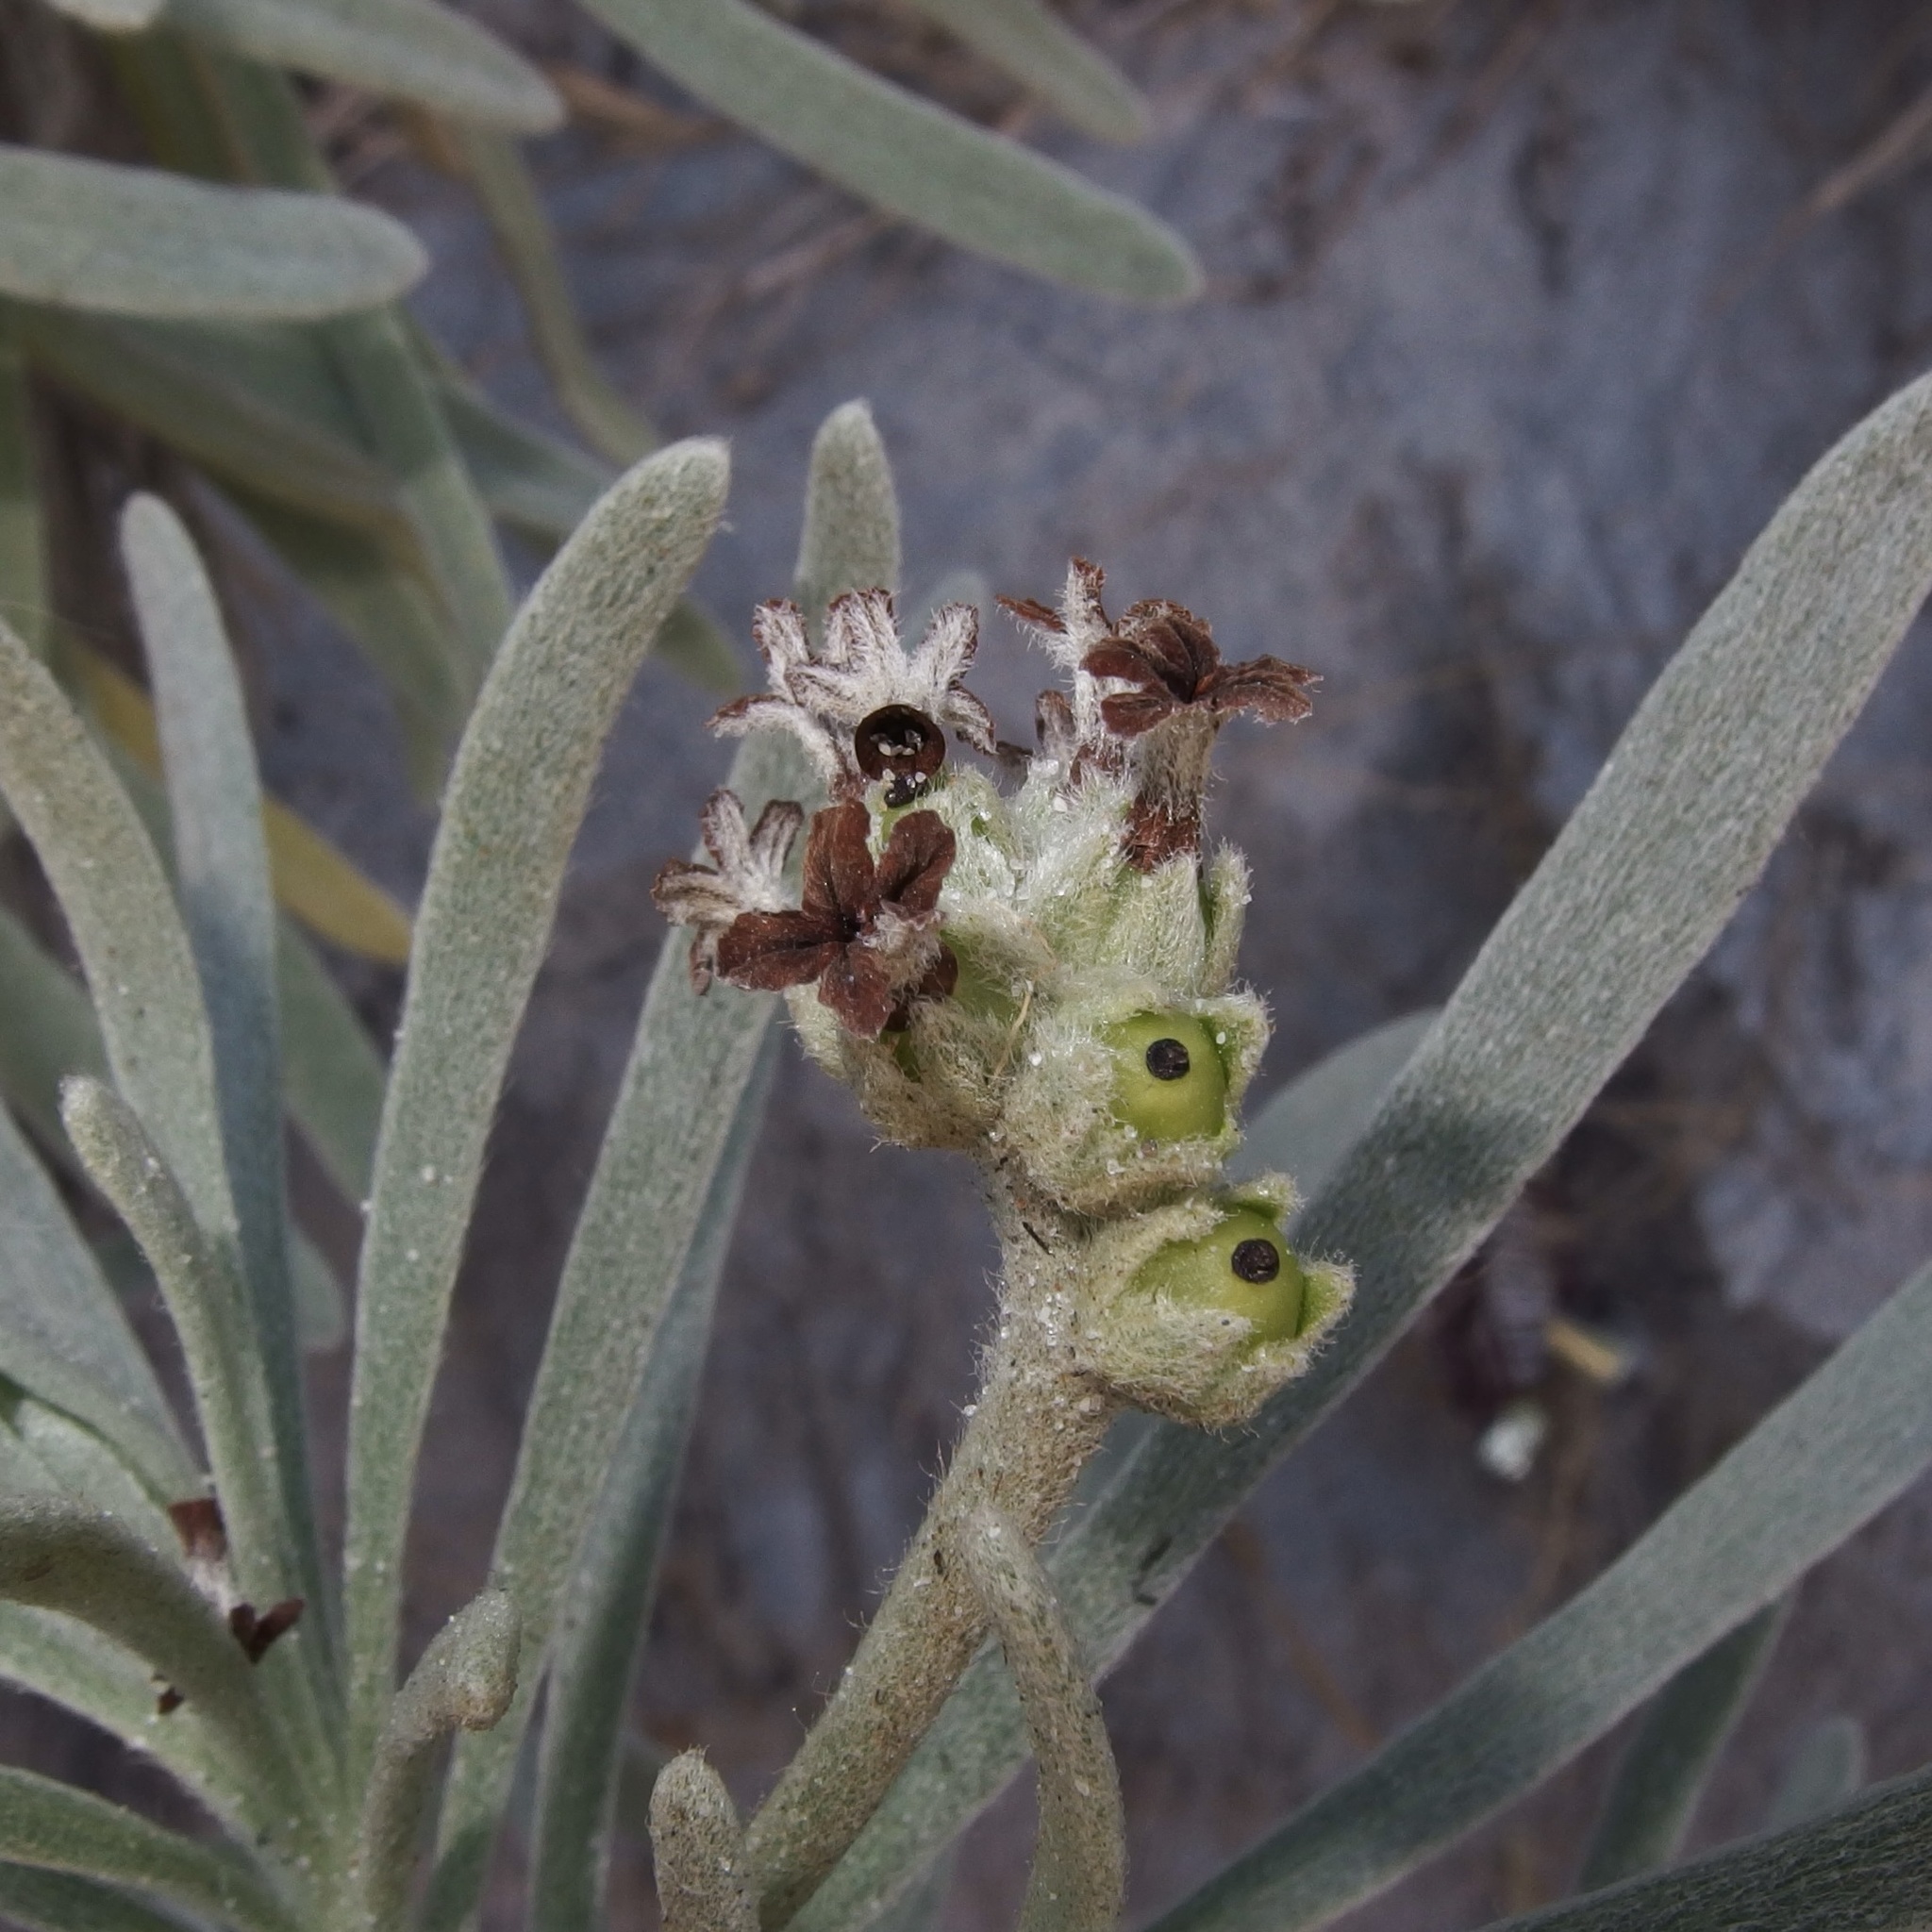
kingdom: Plantae
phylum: Tracheophyta
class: Magnoliopsida
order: Boraginales
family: Heliotropiaceae
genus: Tournefortia
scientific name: Tournefortia gnaphalodes
